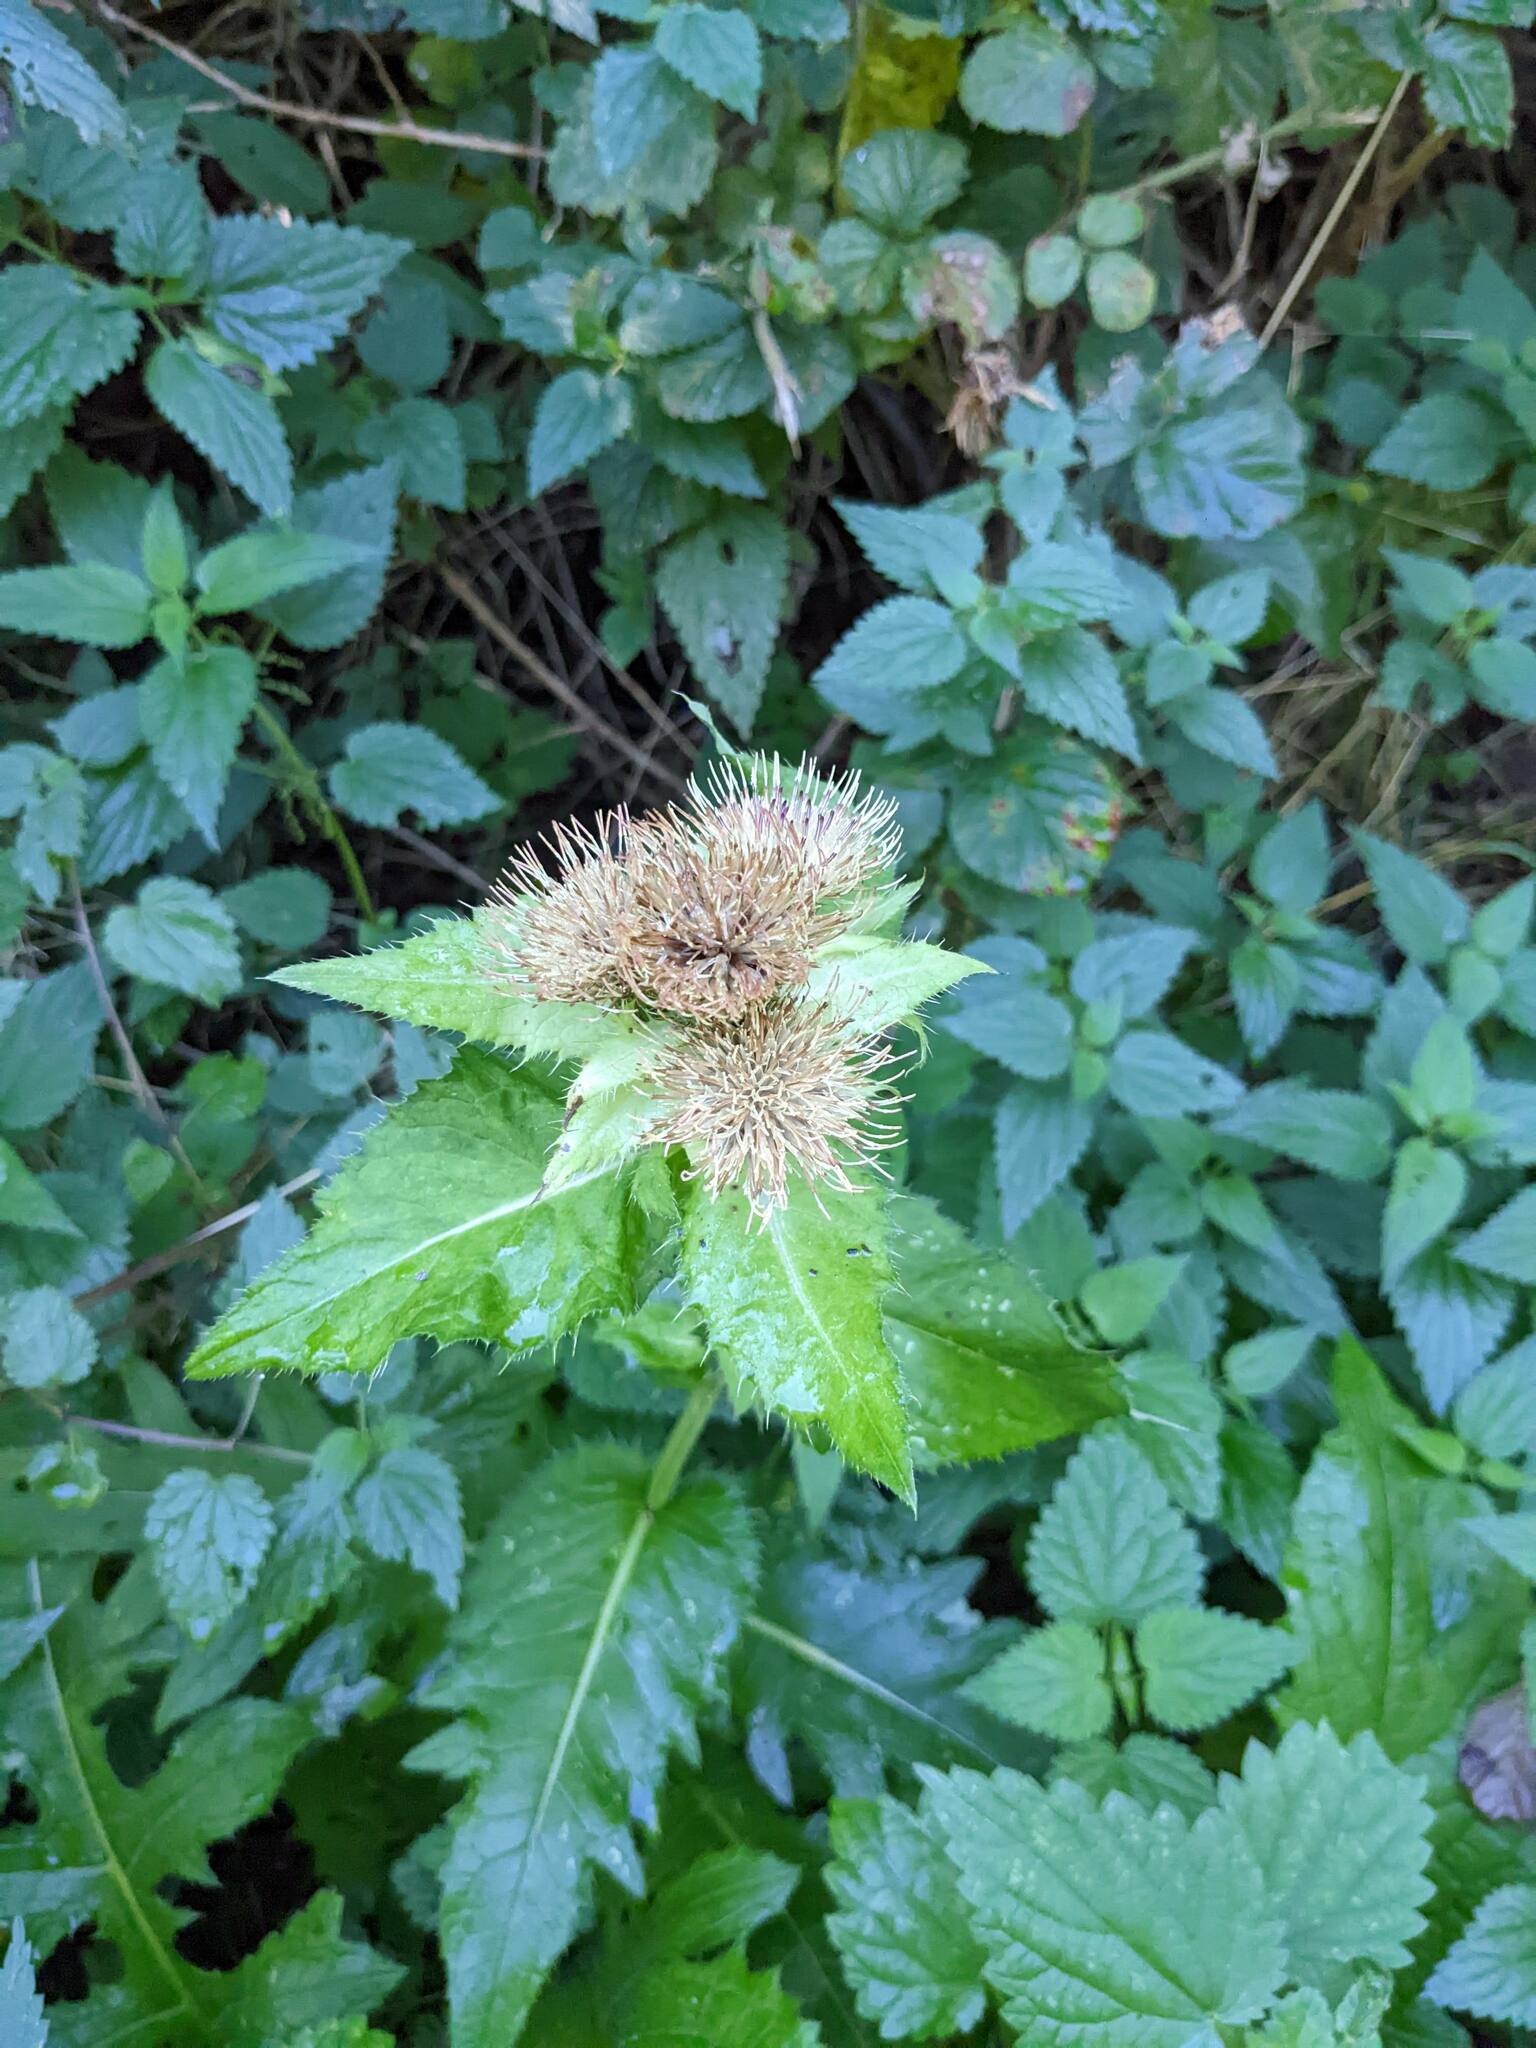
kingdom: Plantae
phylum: Tracheophyta
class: Magnoliopsida
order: Asterales
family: Asteraceae
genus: Cirsium
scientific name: Cirsium oleraceum
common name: Cabbage thistle
